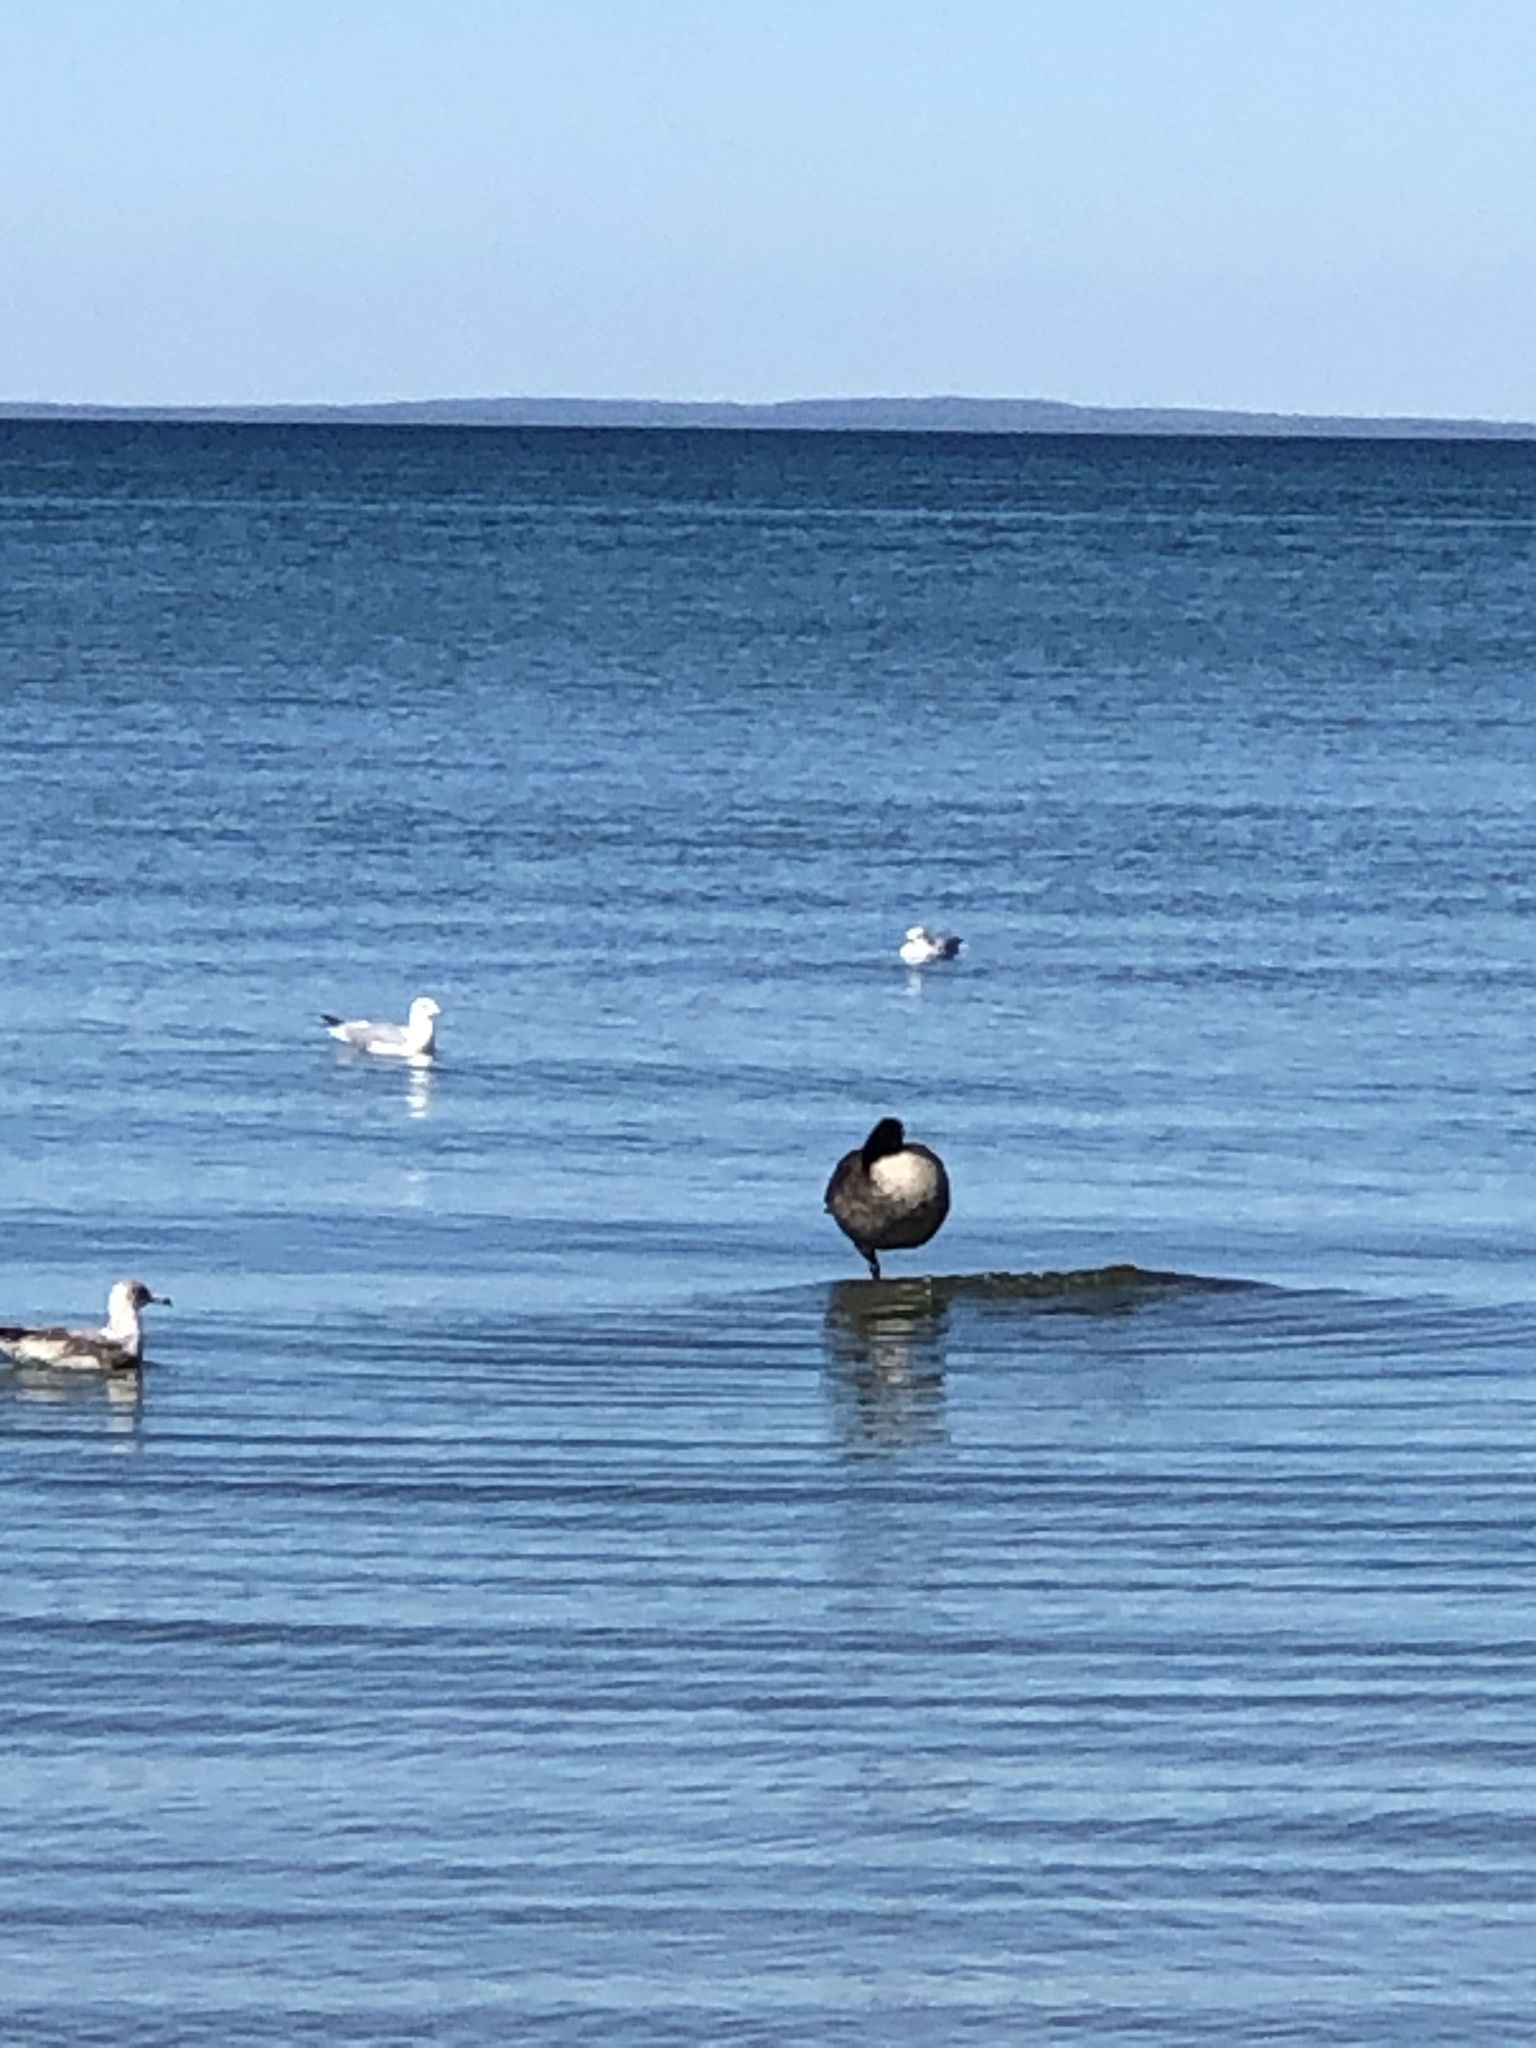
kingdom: Animalia
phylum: Chordata
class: Aves
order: Anseriformes
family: Anatidae
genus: Branta
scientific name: Branta canadensis
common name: Canada goose
